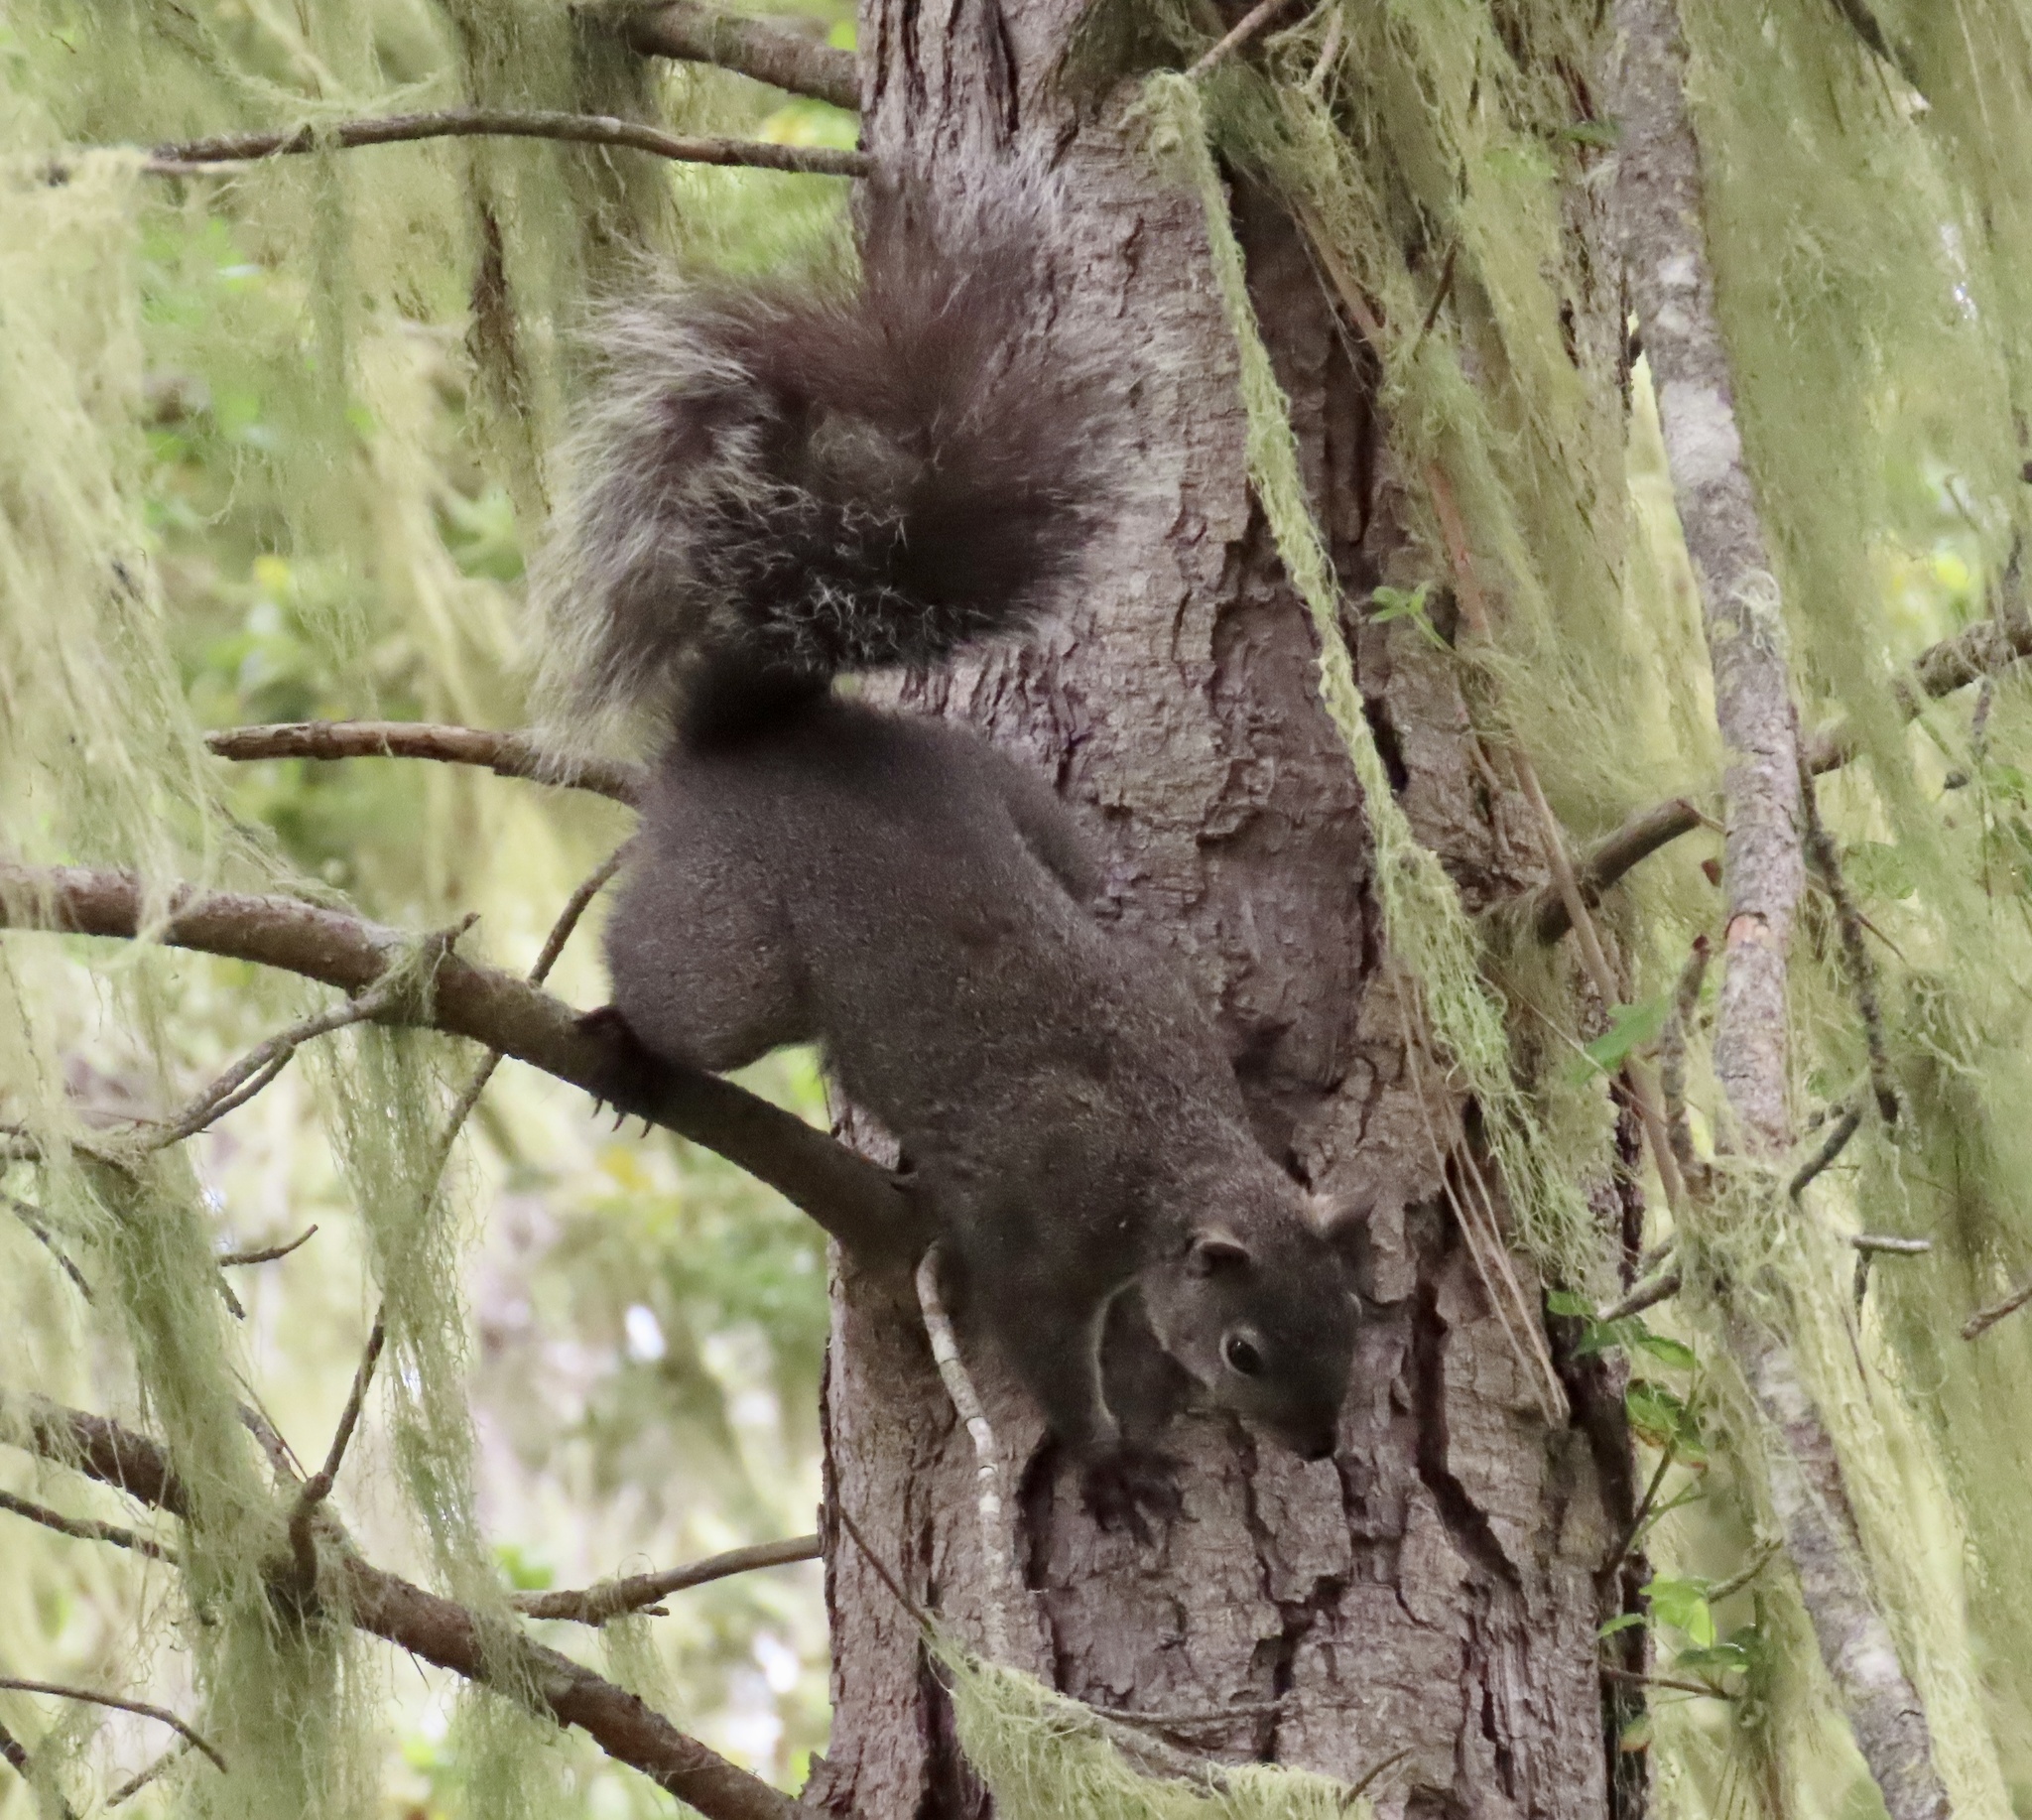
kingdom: Animalia
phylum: Chordata
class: Mammalia
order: Rodentia
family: Sciuridae
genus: Sciurus
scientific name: Sciurus griseus
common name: Western gray squirrel
